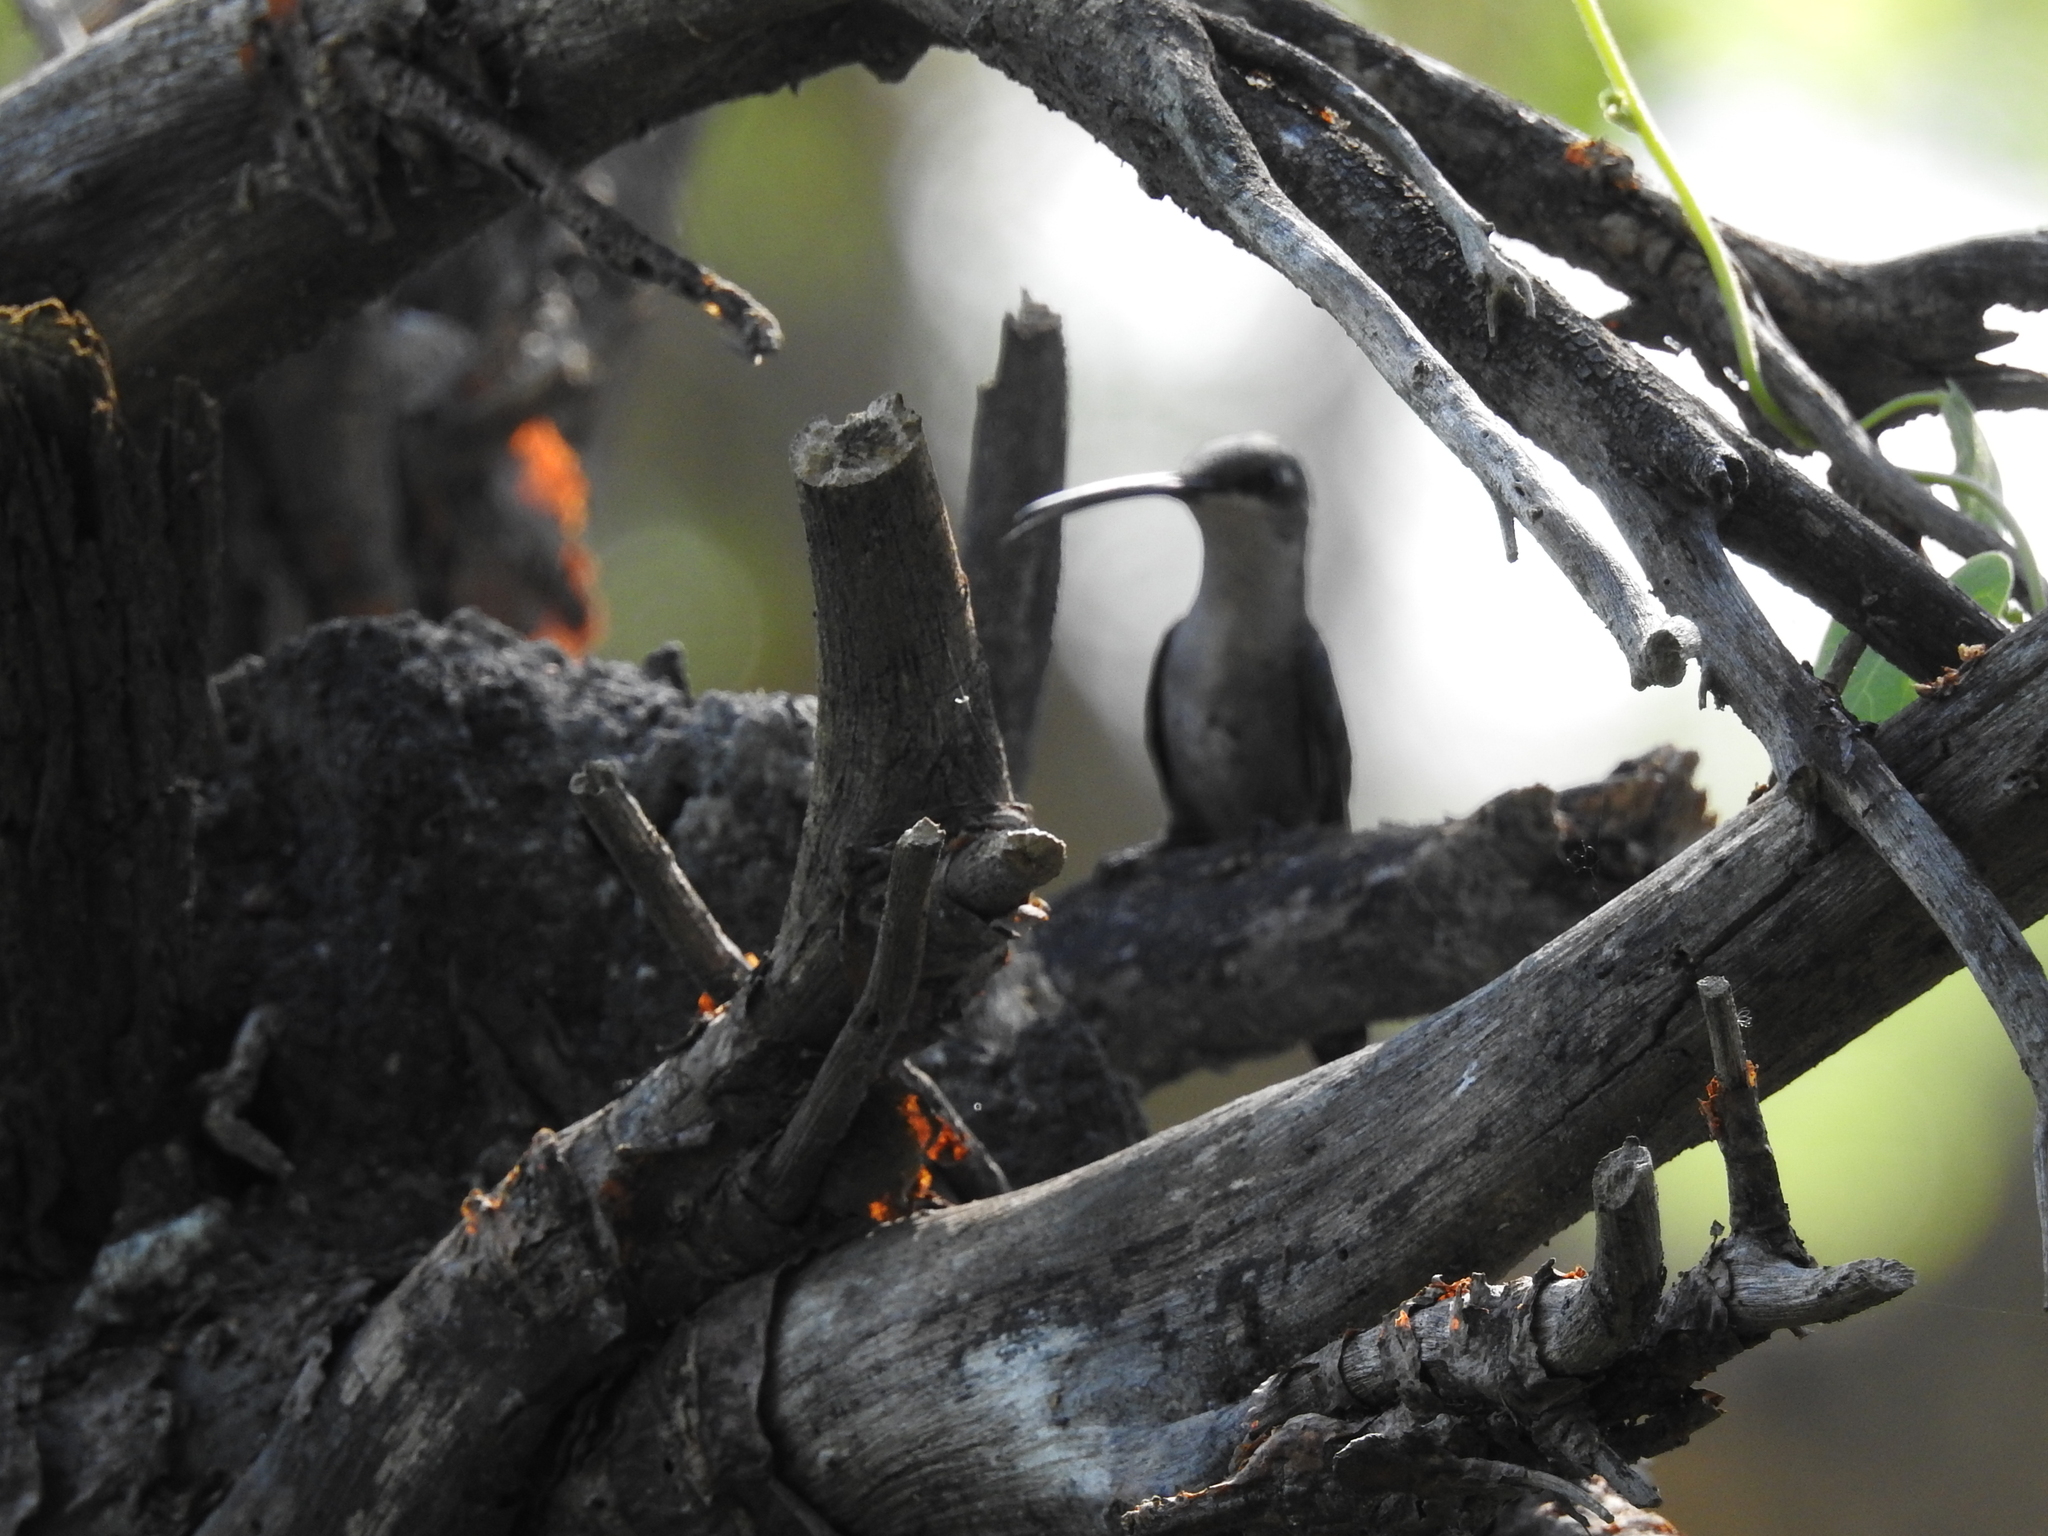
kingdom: Animalia
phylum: Chordata
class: Aves
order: Apodiformes
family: Trochilidae
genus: Heliomaster
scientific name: Heliomaster furcifer
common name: Blue-tufted starthroat
